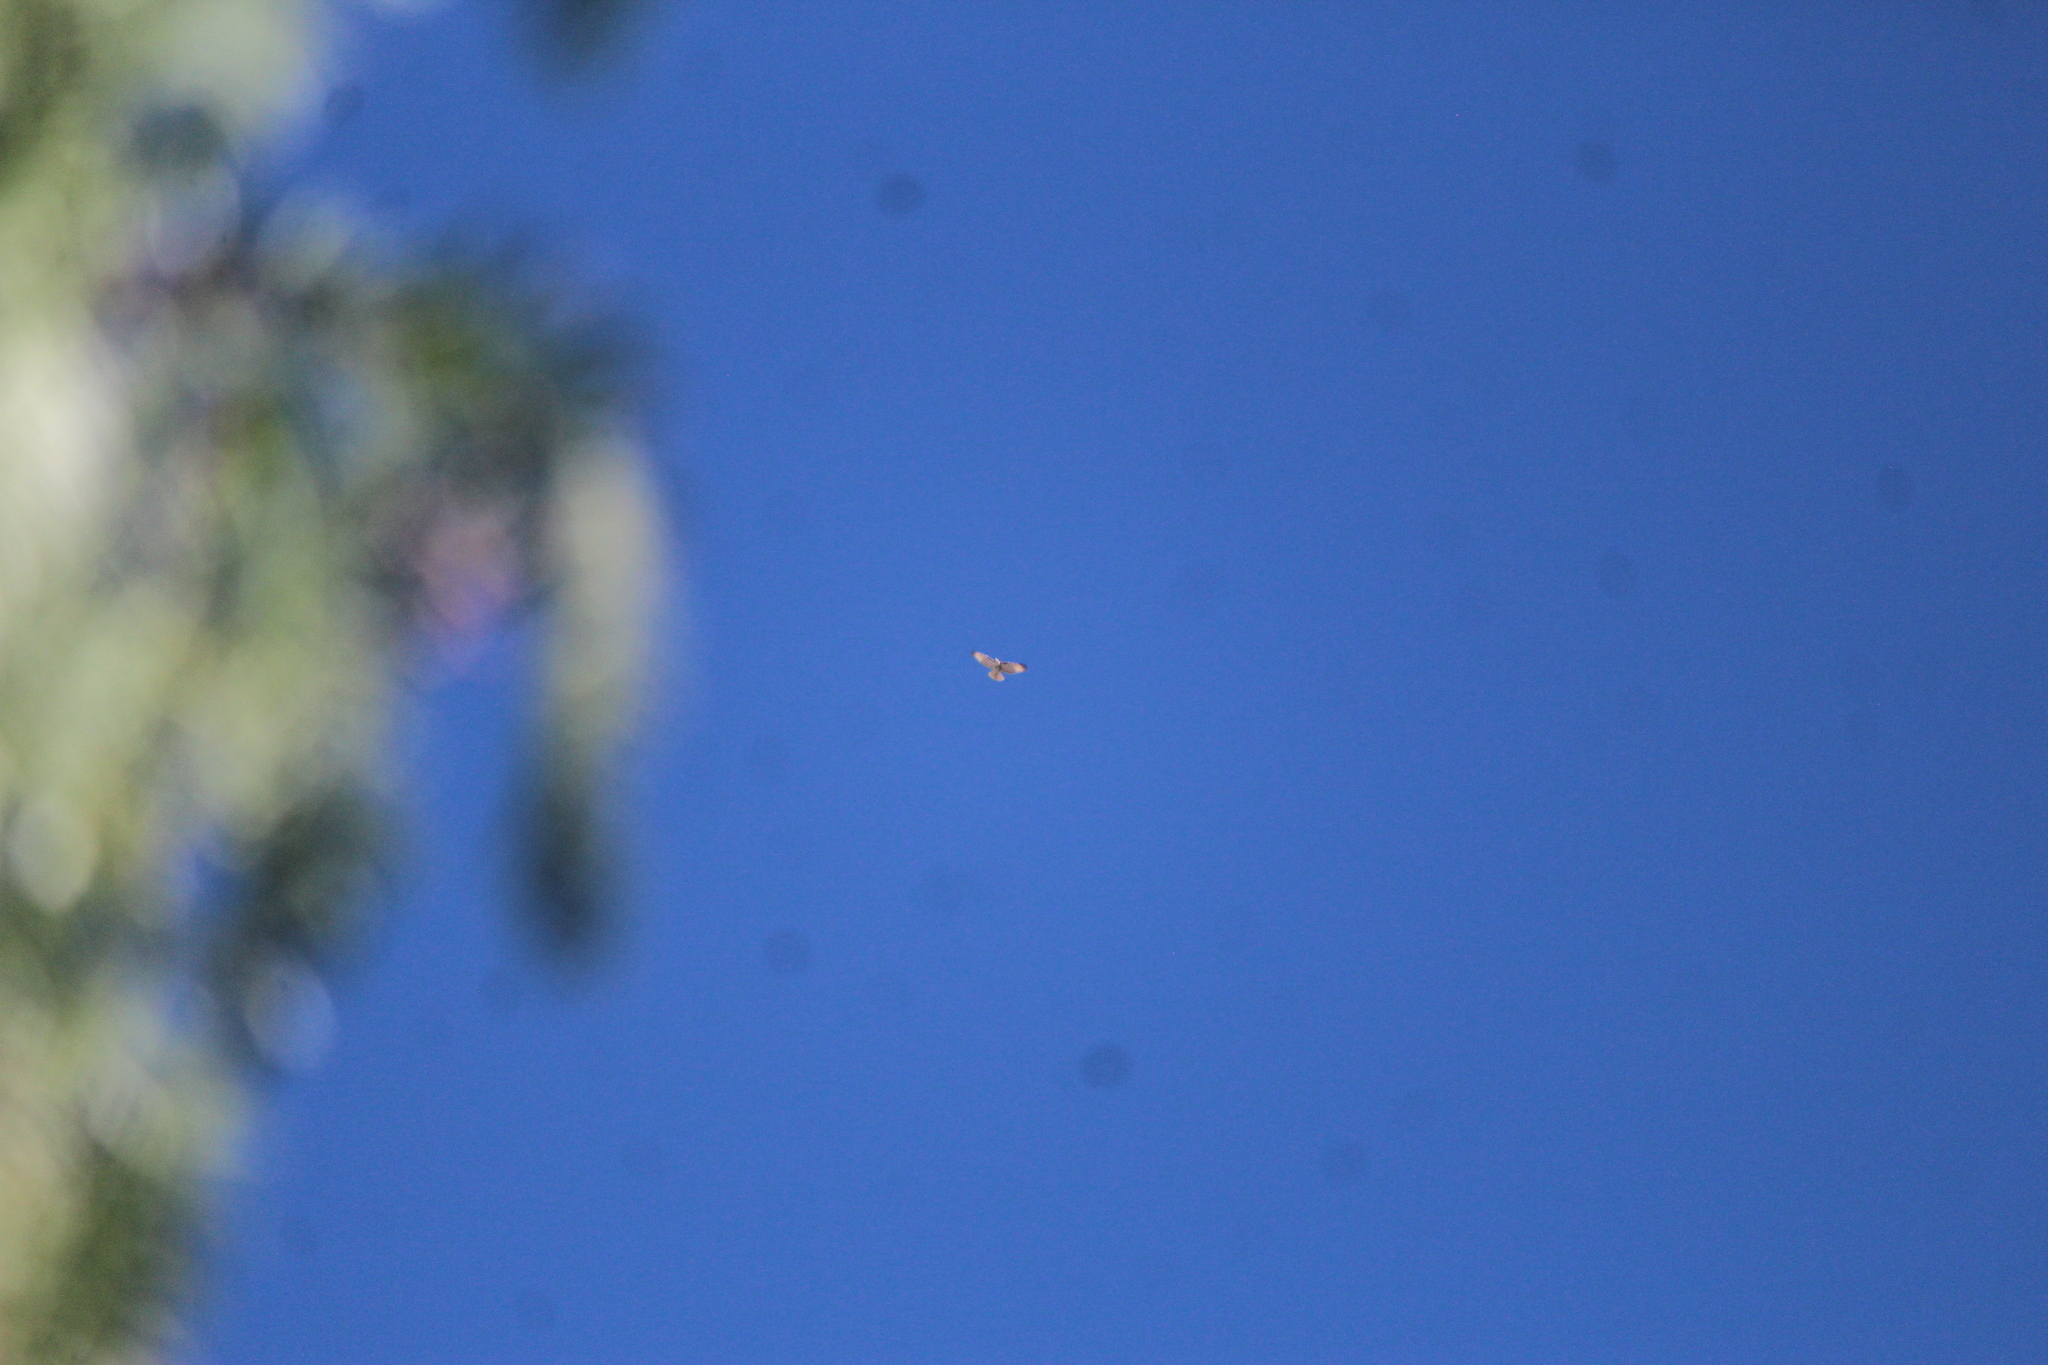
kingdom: Animalia
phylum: Chordata
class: Aves
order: Accipitriformes
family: Accipitridae
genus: Buteo
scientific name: Buteo jamaicensis
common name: Red-tailed hawk
